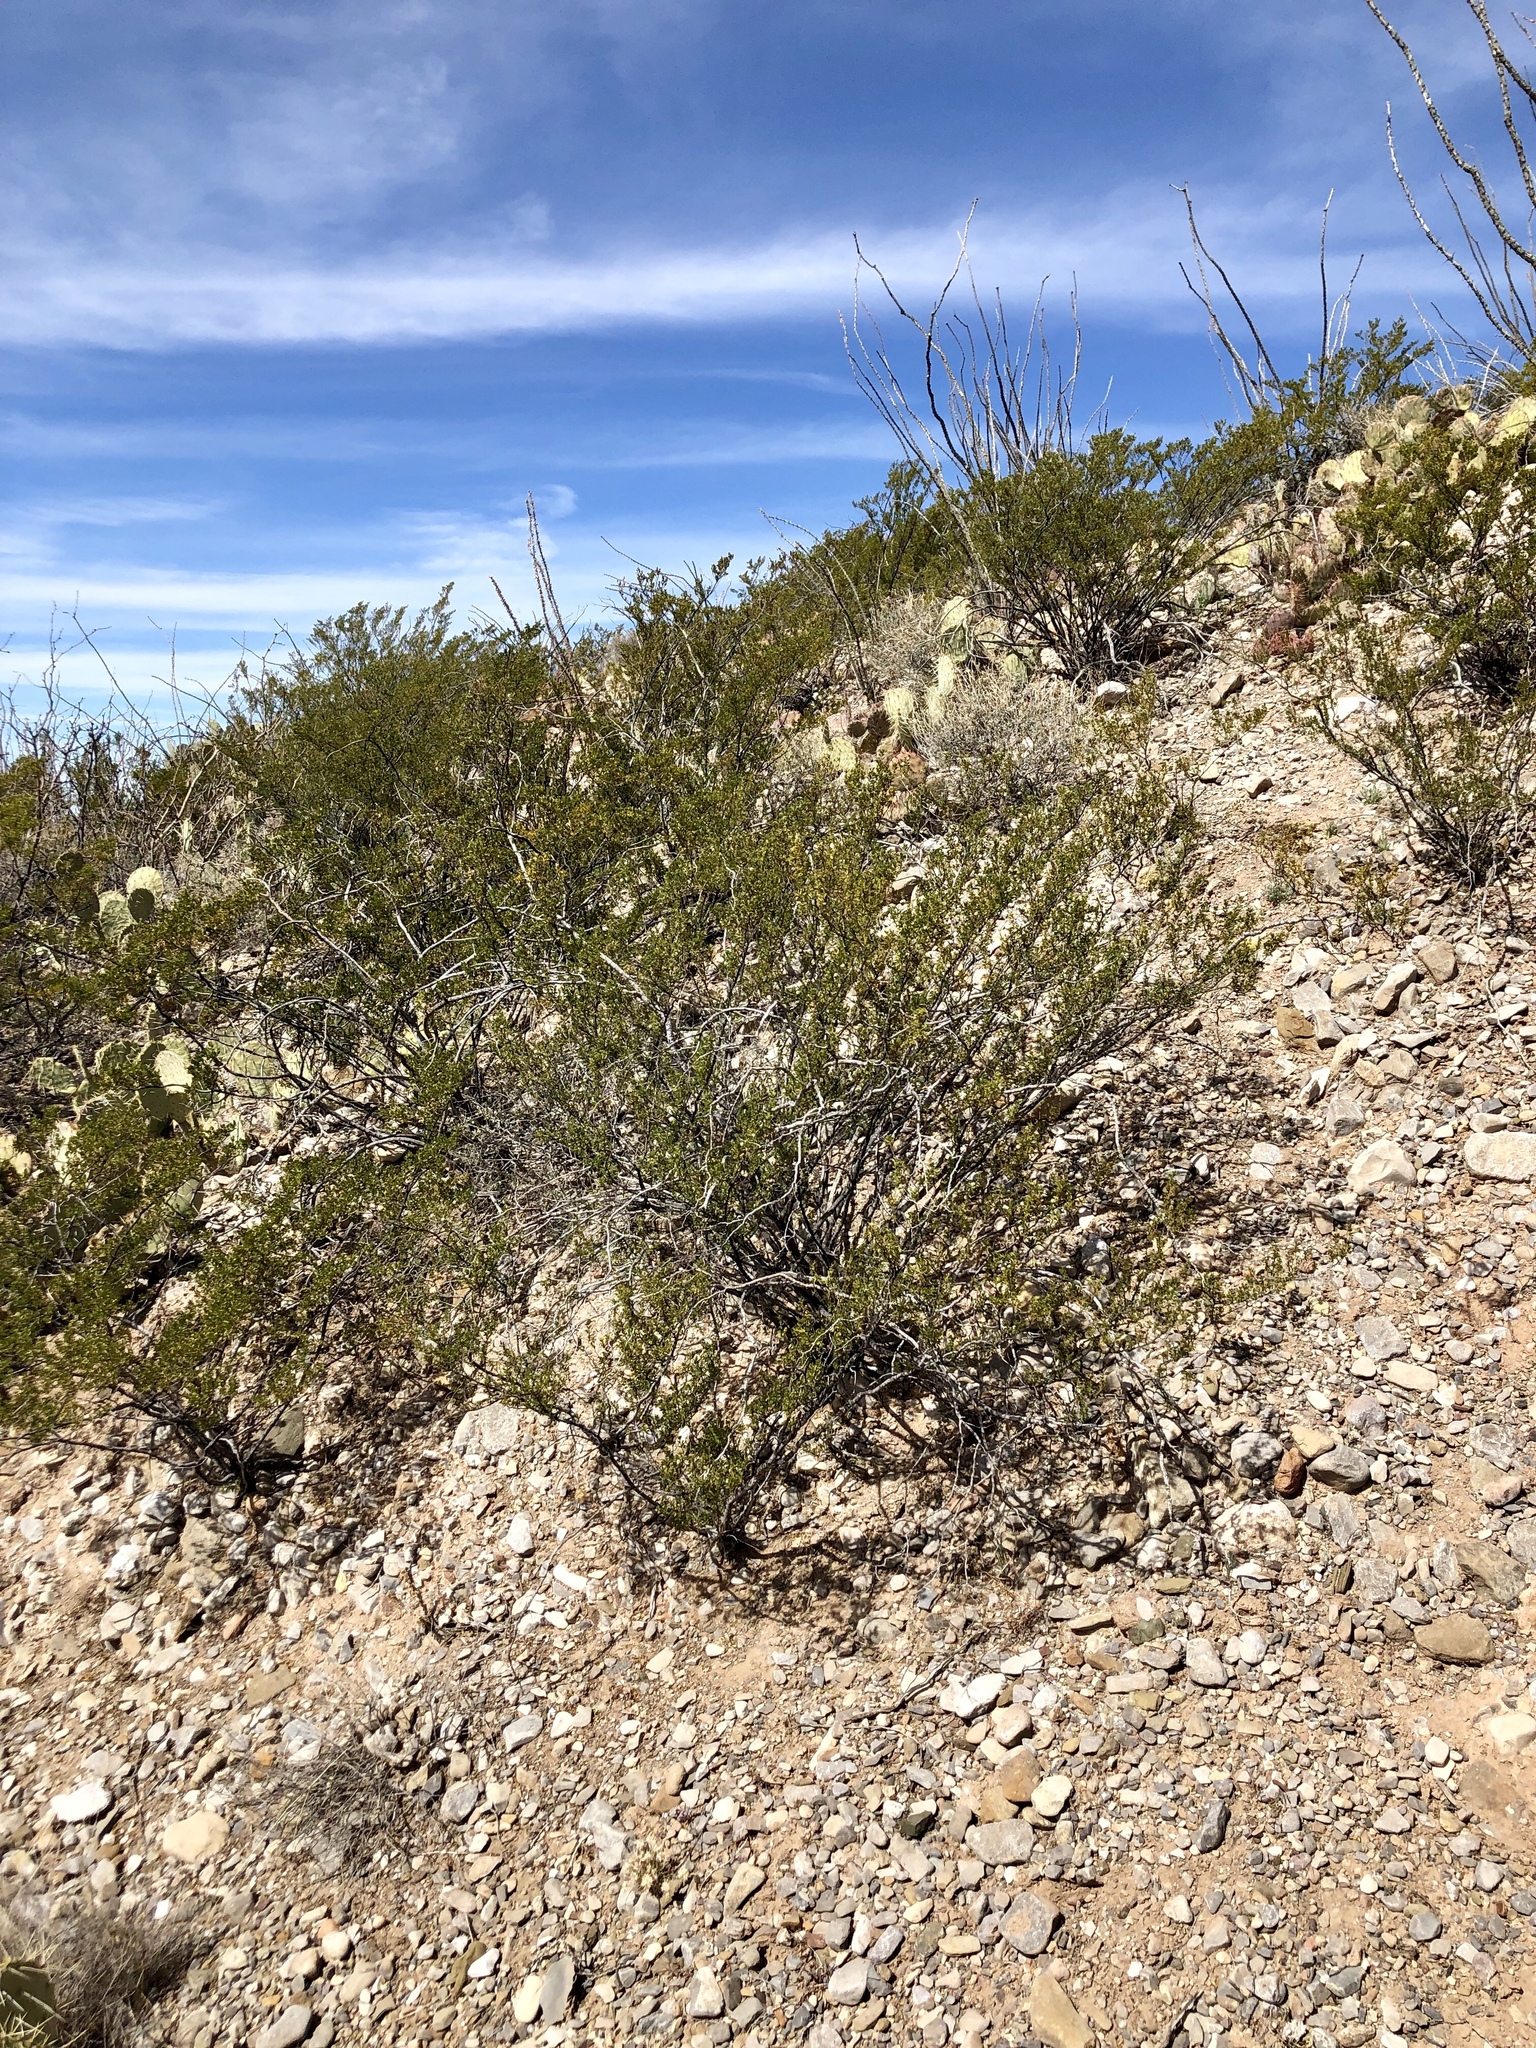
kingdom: Plantae
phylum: Tracheophyta
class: Magnoliopsida
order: Zygophyllales
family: Zygophyllaceae
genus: Larrea
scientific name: Larrea tridentata
